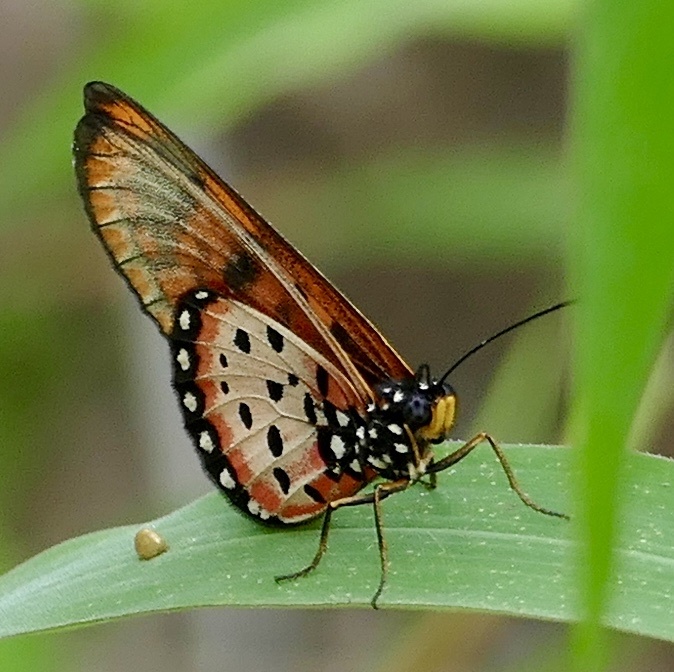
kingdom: Animalia
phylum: Arthropoda
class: Insecta
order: Lepidoptera
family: Nymphalidae
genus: Acraea
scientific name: Acraea neobule
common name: Dancing acraea
